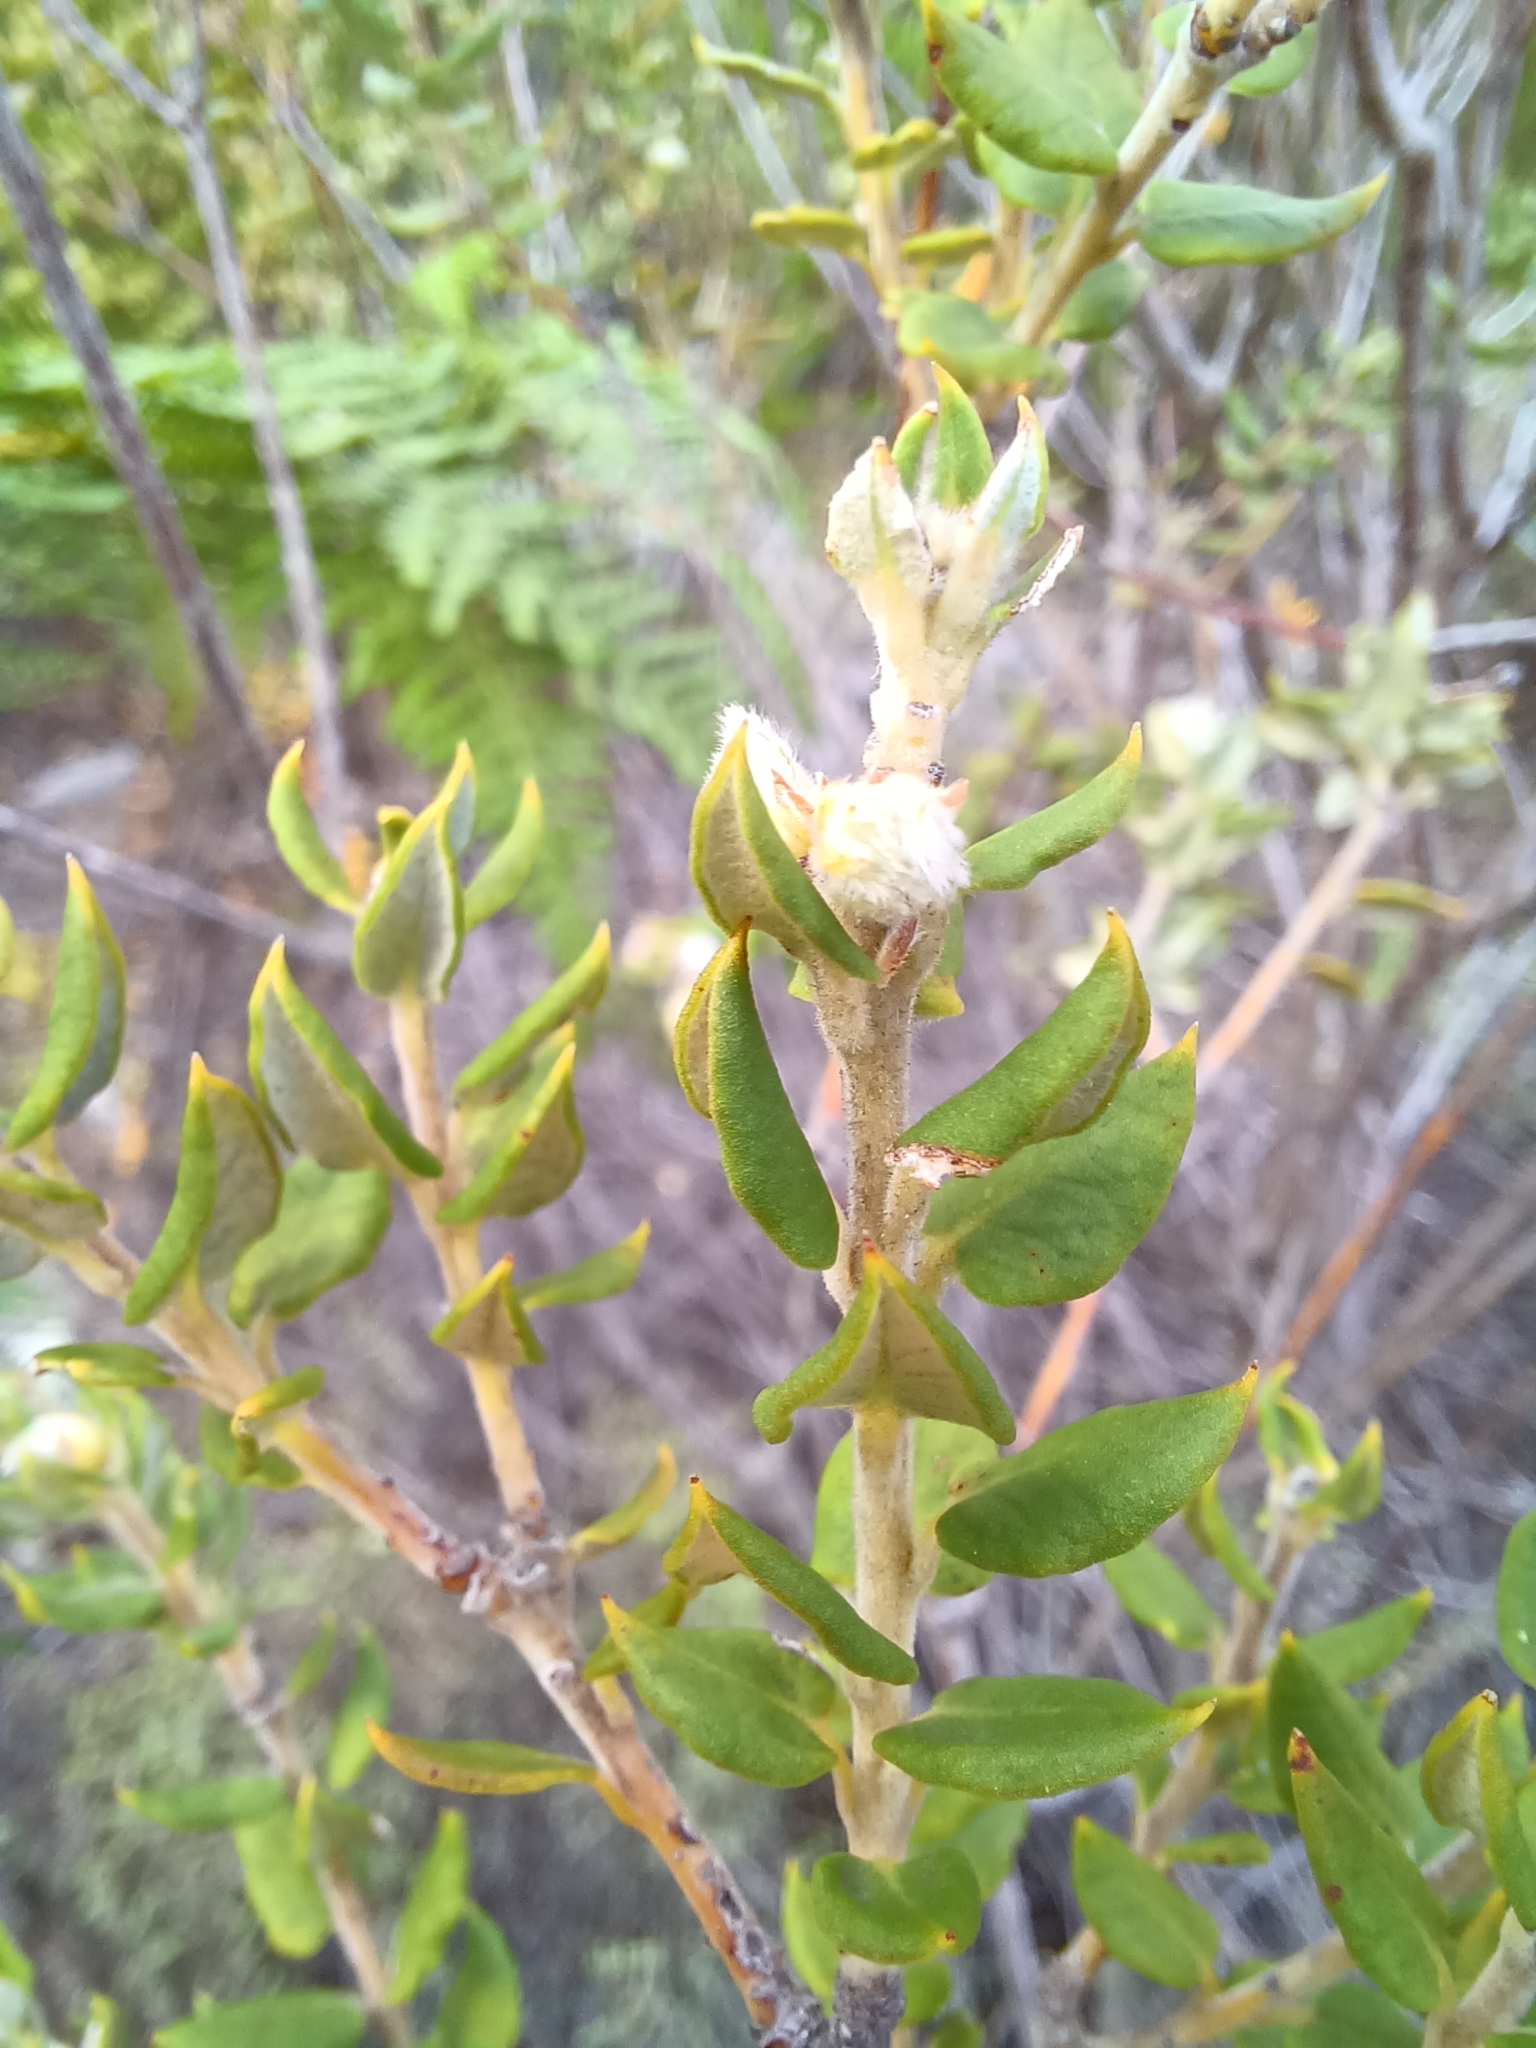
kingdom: Plantae
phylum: Tracheophyta
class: Magnoliopsida
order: Rosales
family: Rhamnaceae
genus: Phylica
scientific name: Phylica nervosa
